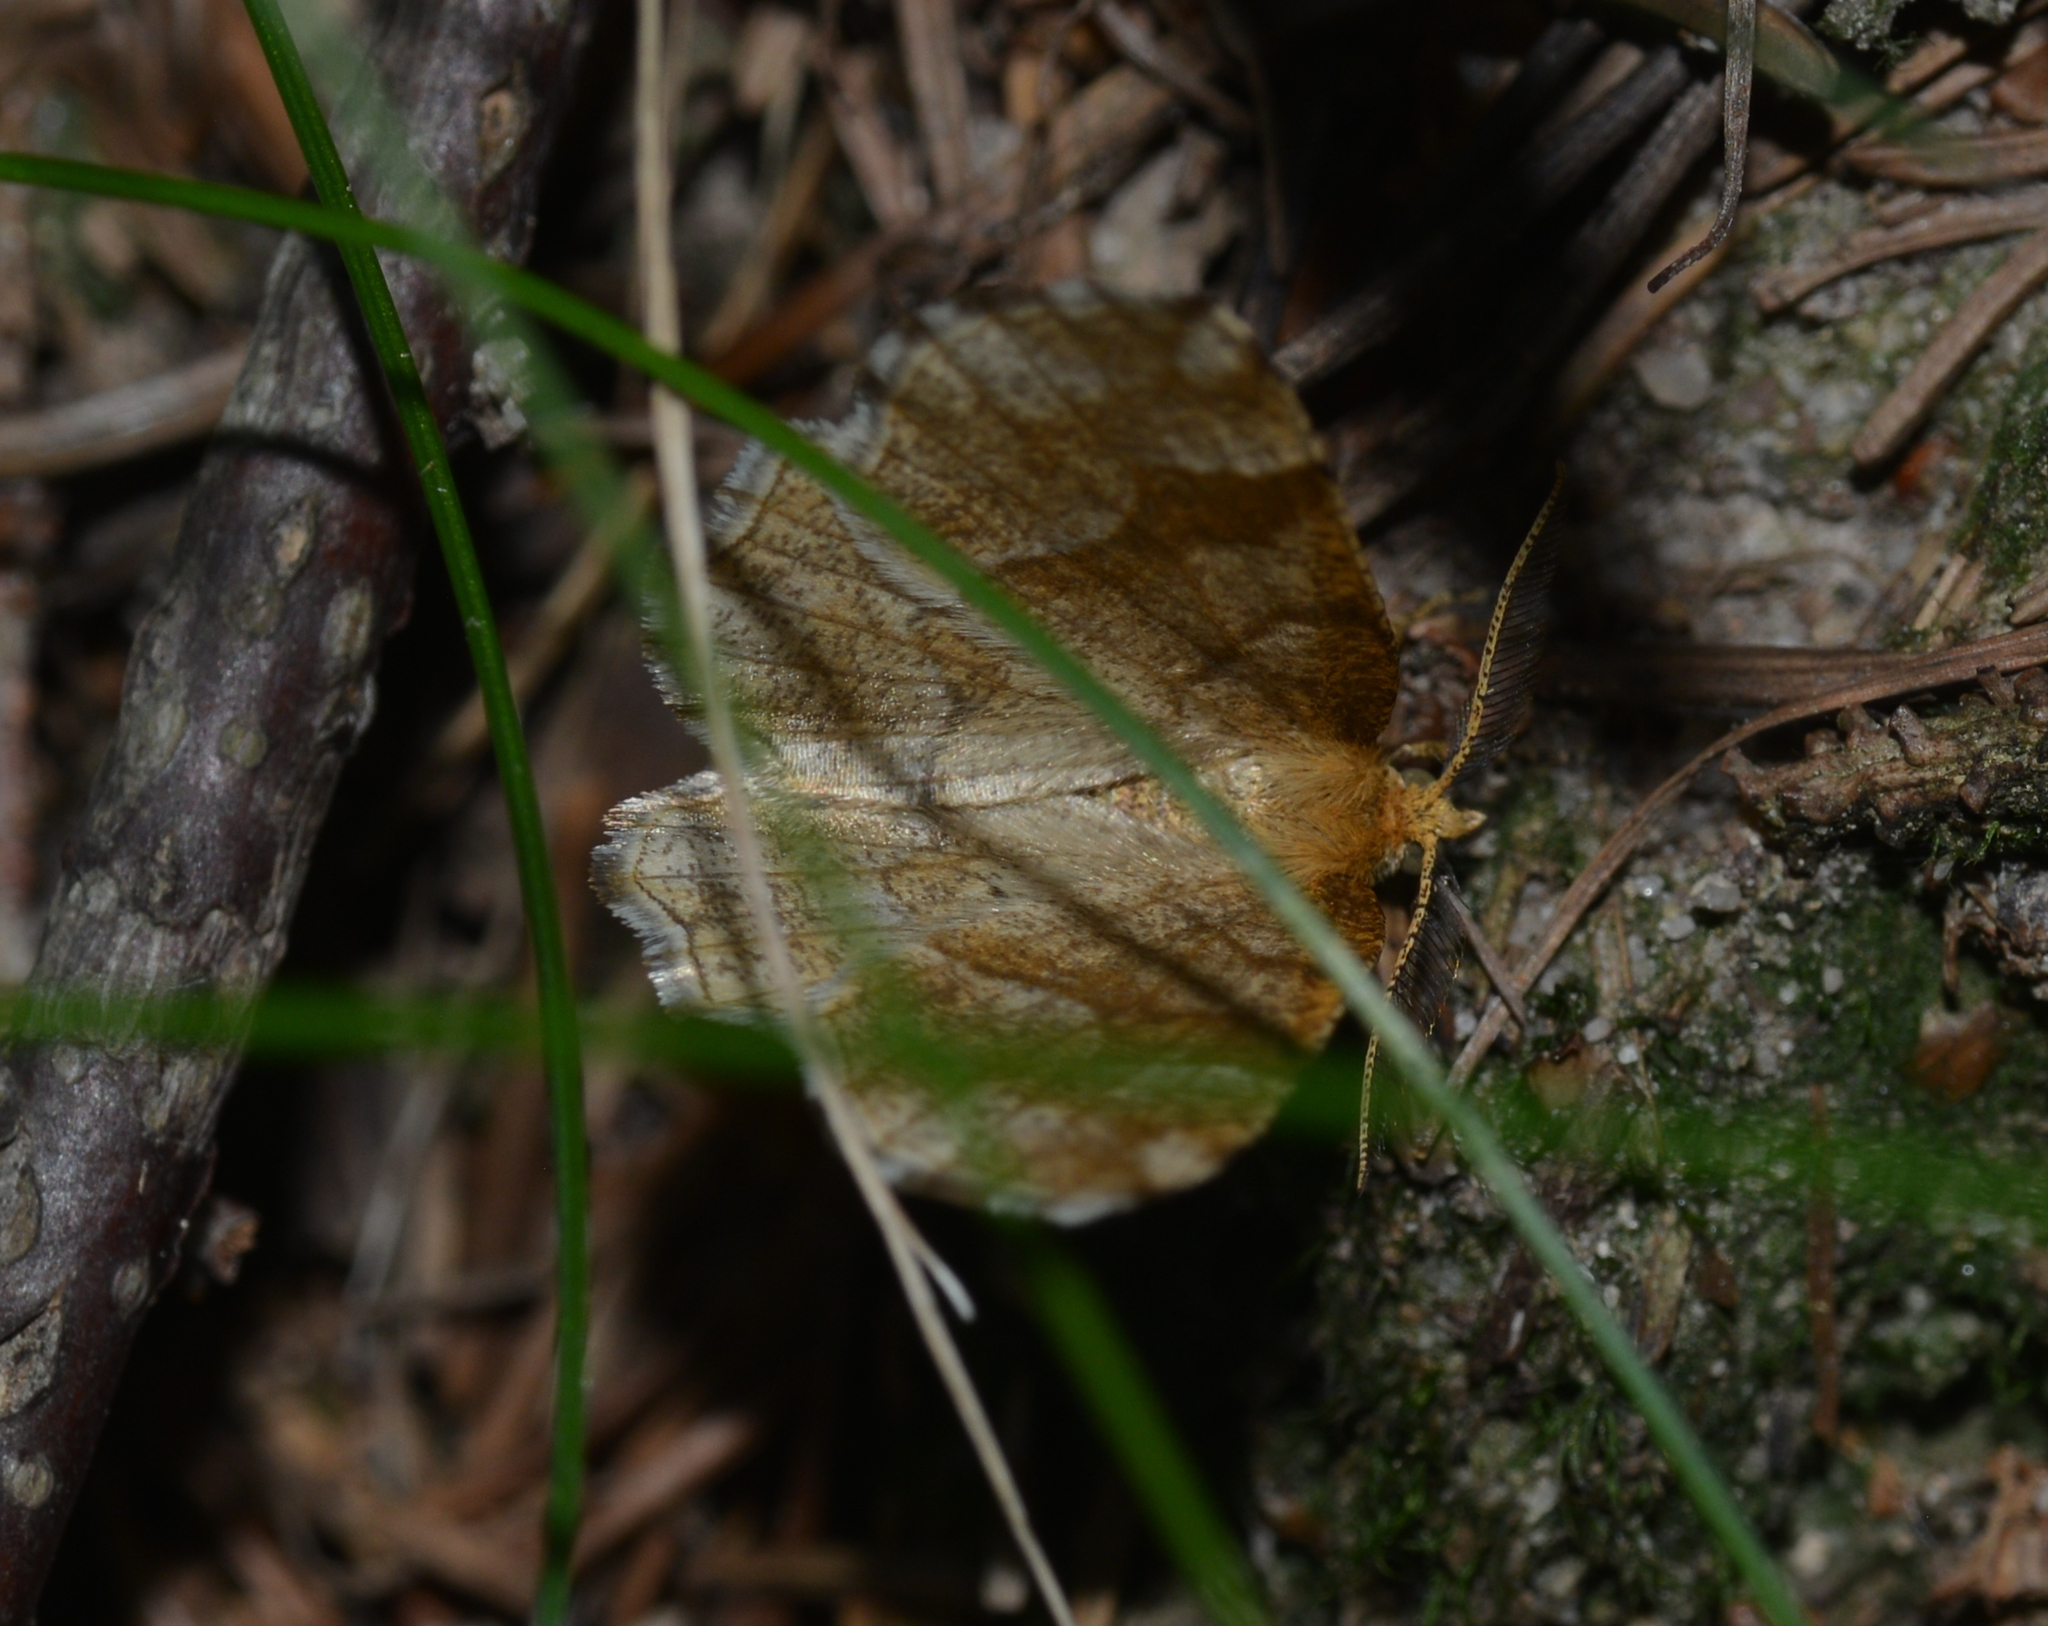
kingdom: Animalia
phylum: Arthropoda
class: Insecta
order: Lepidoptera
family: Geometridae
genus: Cepphis
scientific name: Cepphis advenaria
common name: Little thorn
